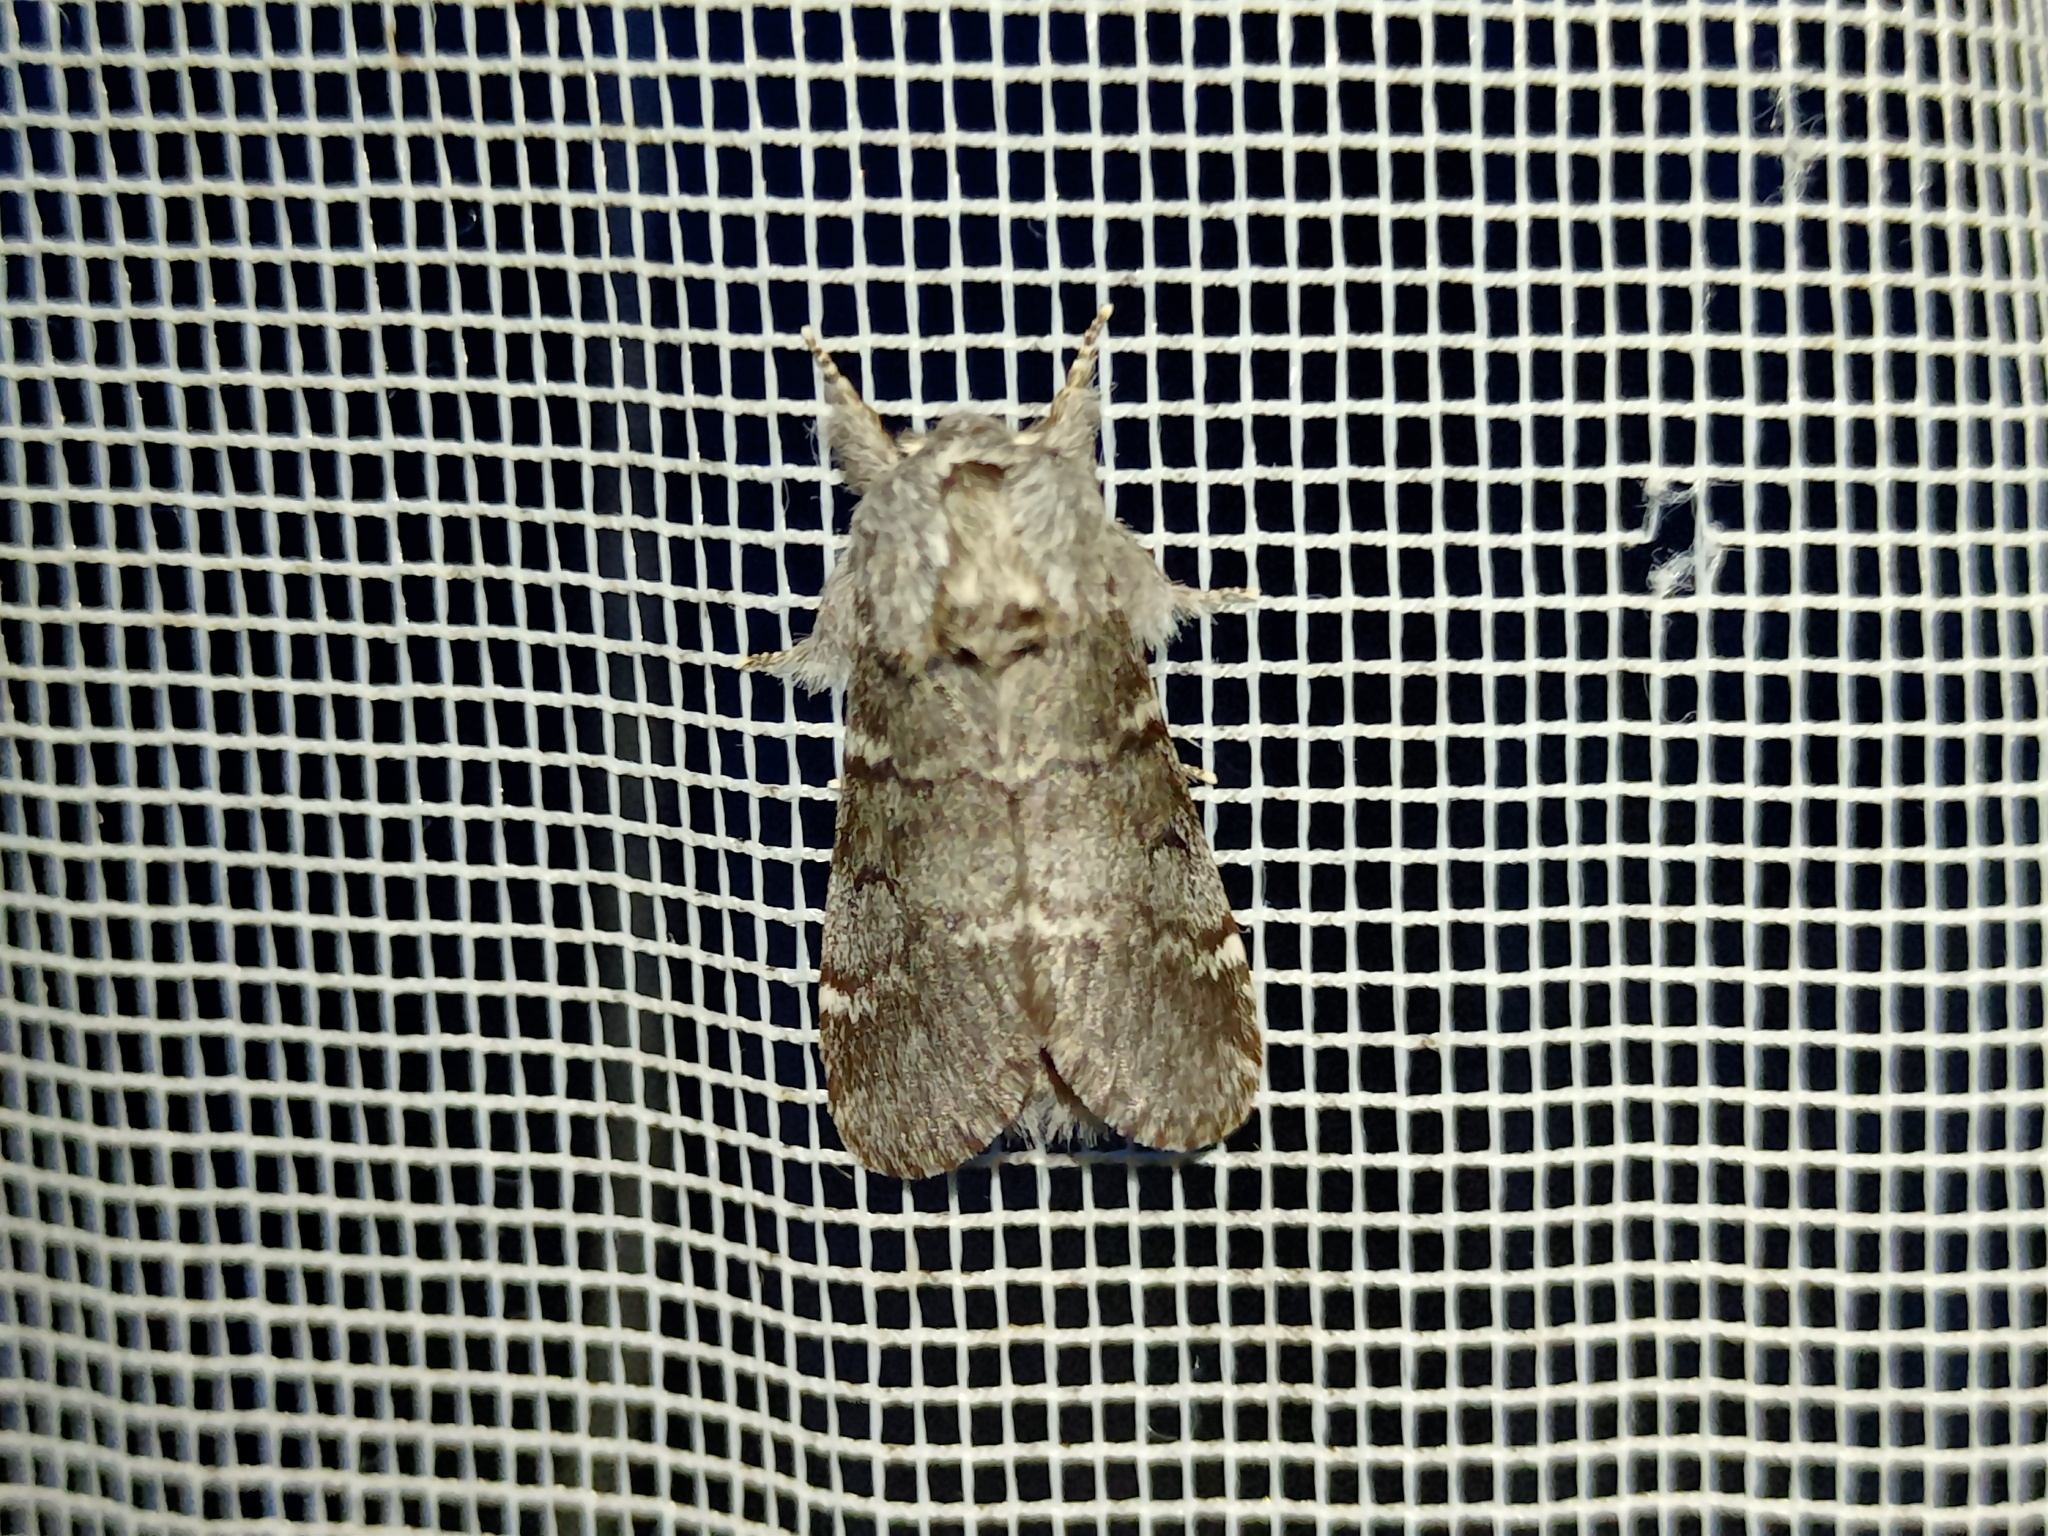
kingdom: Animalia
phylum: Arthropoda
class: Insecta
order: Lepidoptera
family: Notodontidae
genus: Drymonia
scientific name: Drymonia ruficornis
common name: Lunar marbled brown
